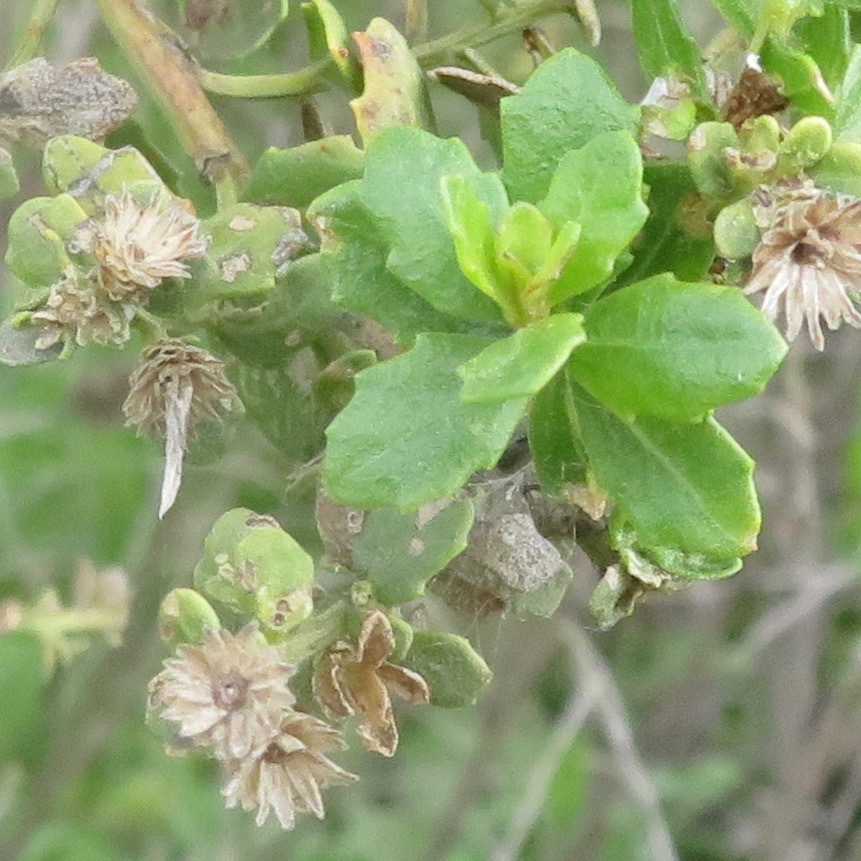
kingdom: Plantae
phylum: Tracheophyta
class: Magnoliopsida
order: Asterales
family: Asteraceae
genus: Baccharis
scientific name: Baccharis pilularis
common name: Coyotebrush
